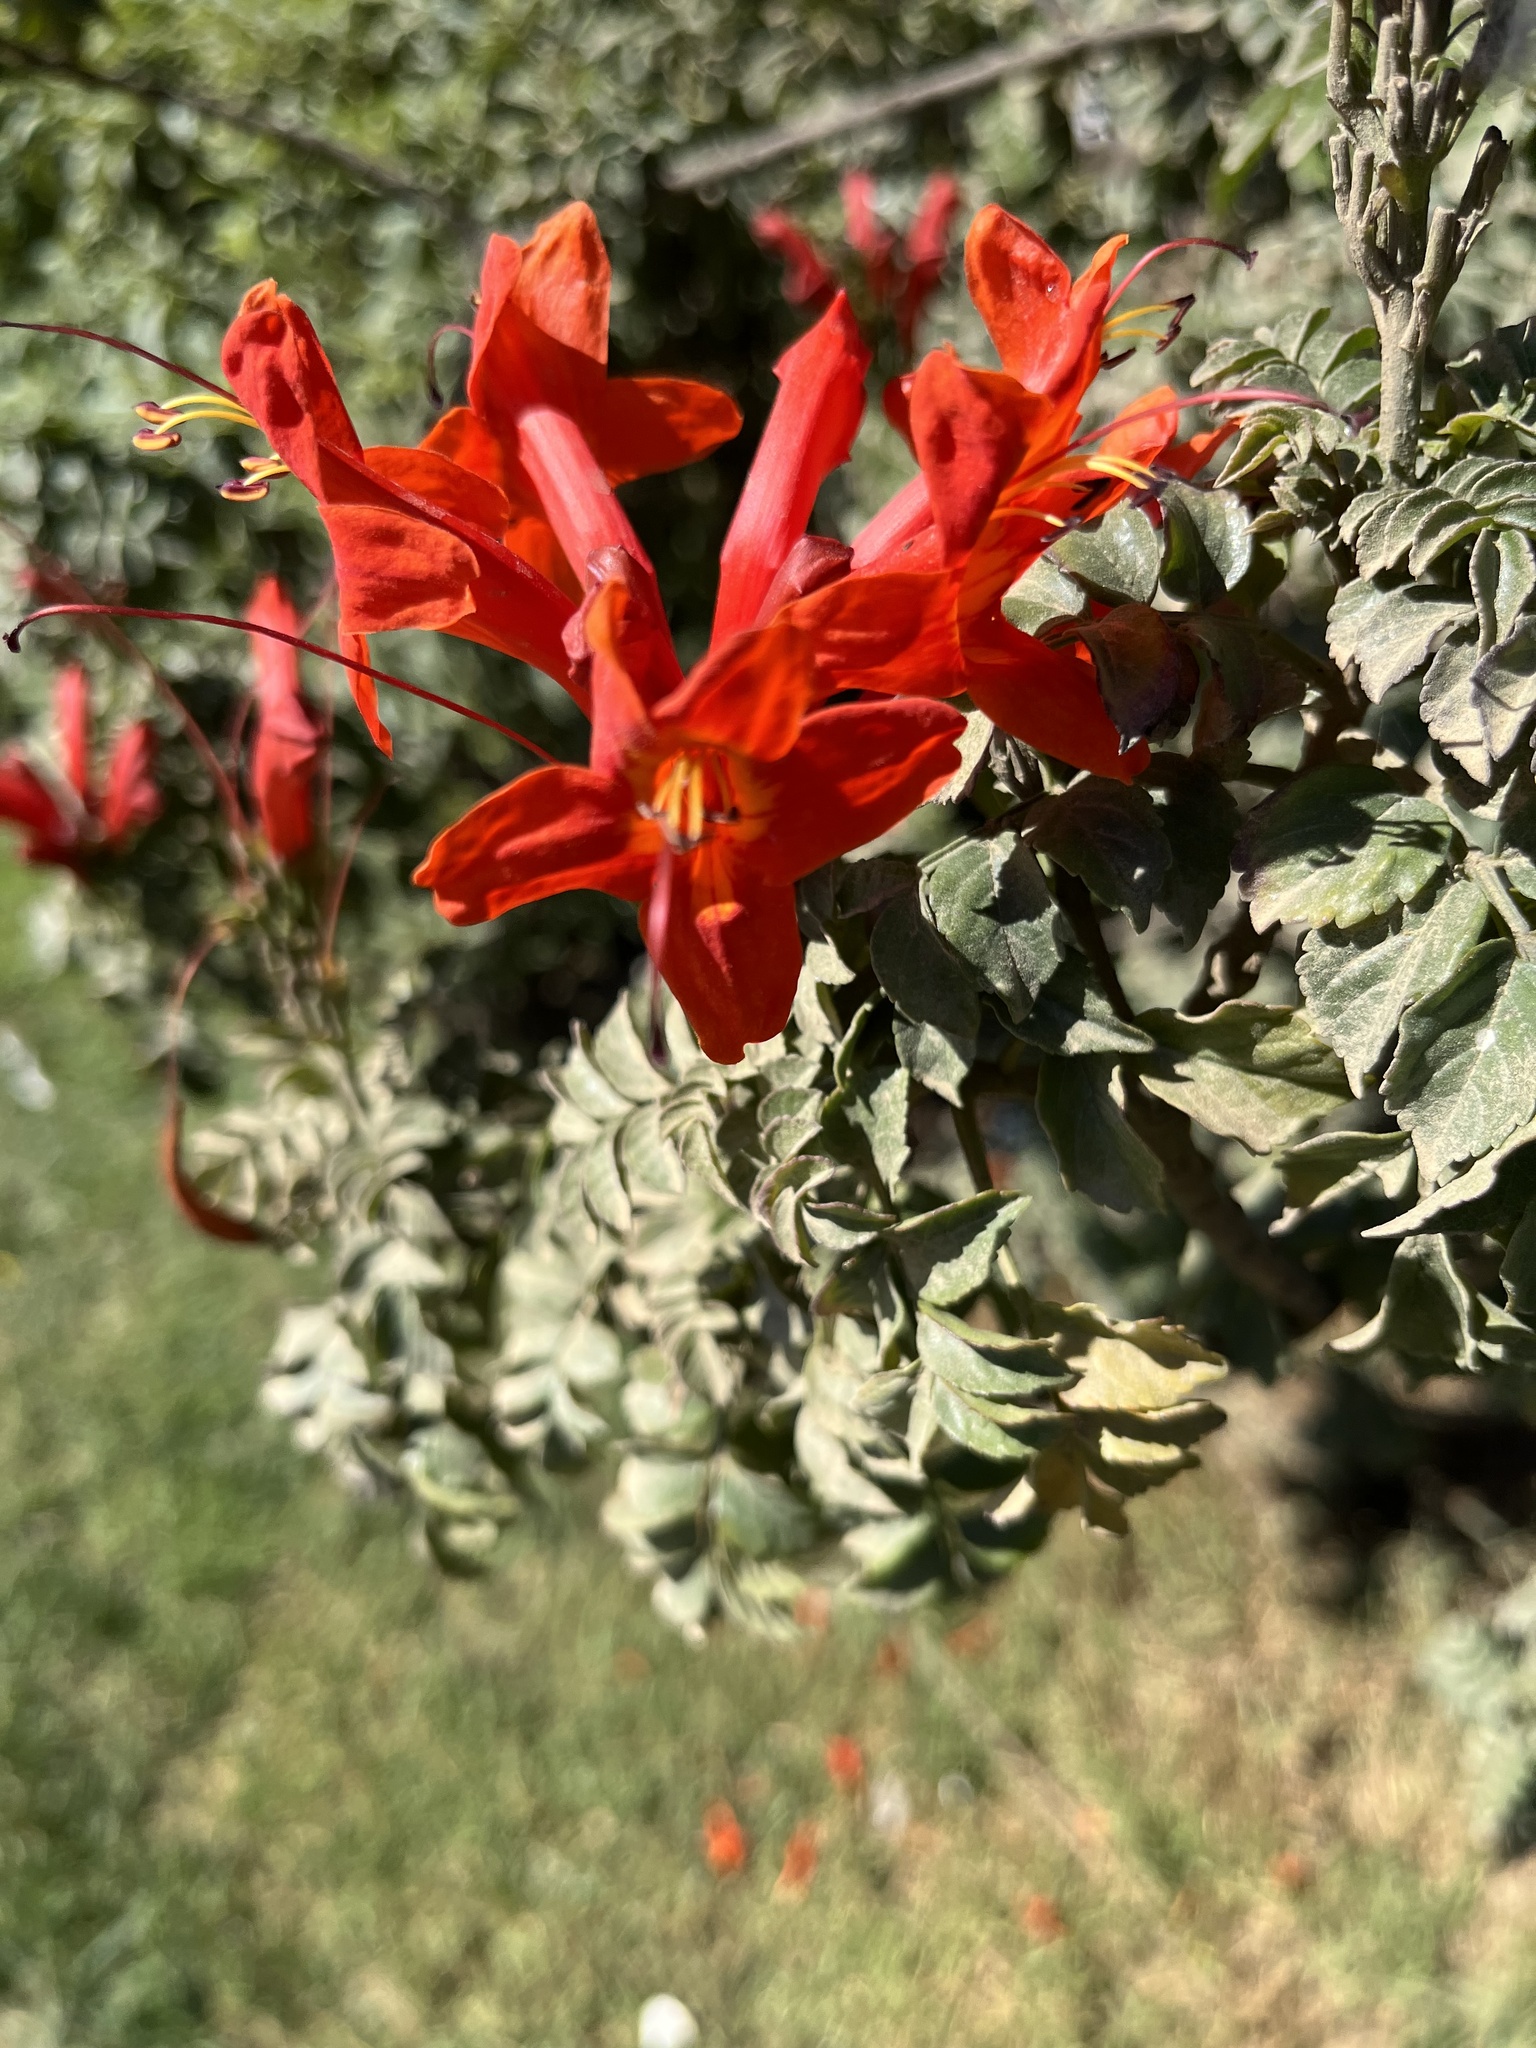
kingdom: Plantae
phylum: Tracheophyta
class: Magnoliopsida
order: Lamiales
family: Bignoniaceae
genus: Tecomaria
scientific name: Tecomaria capensis
